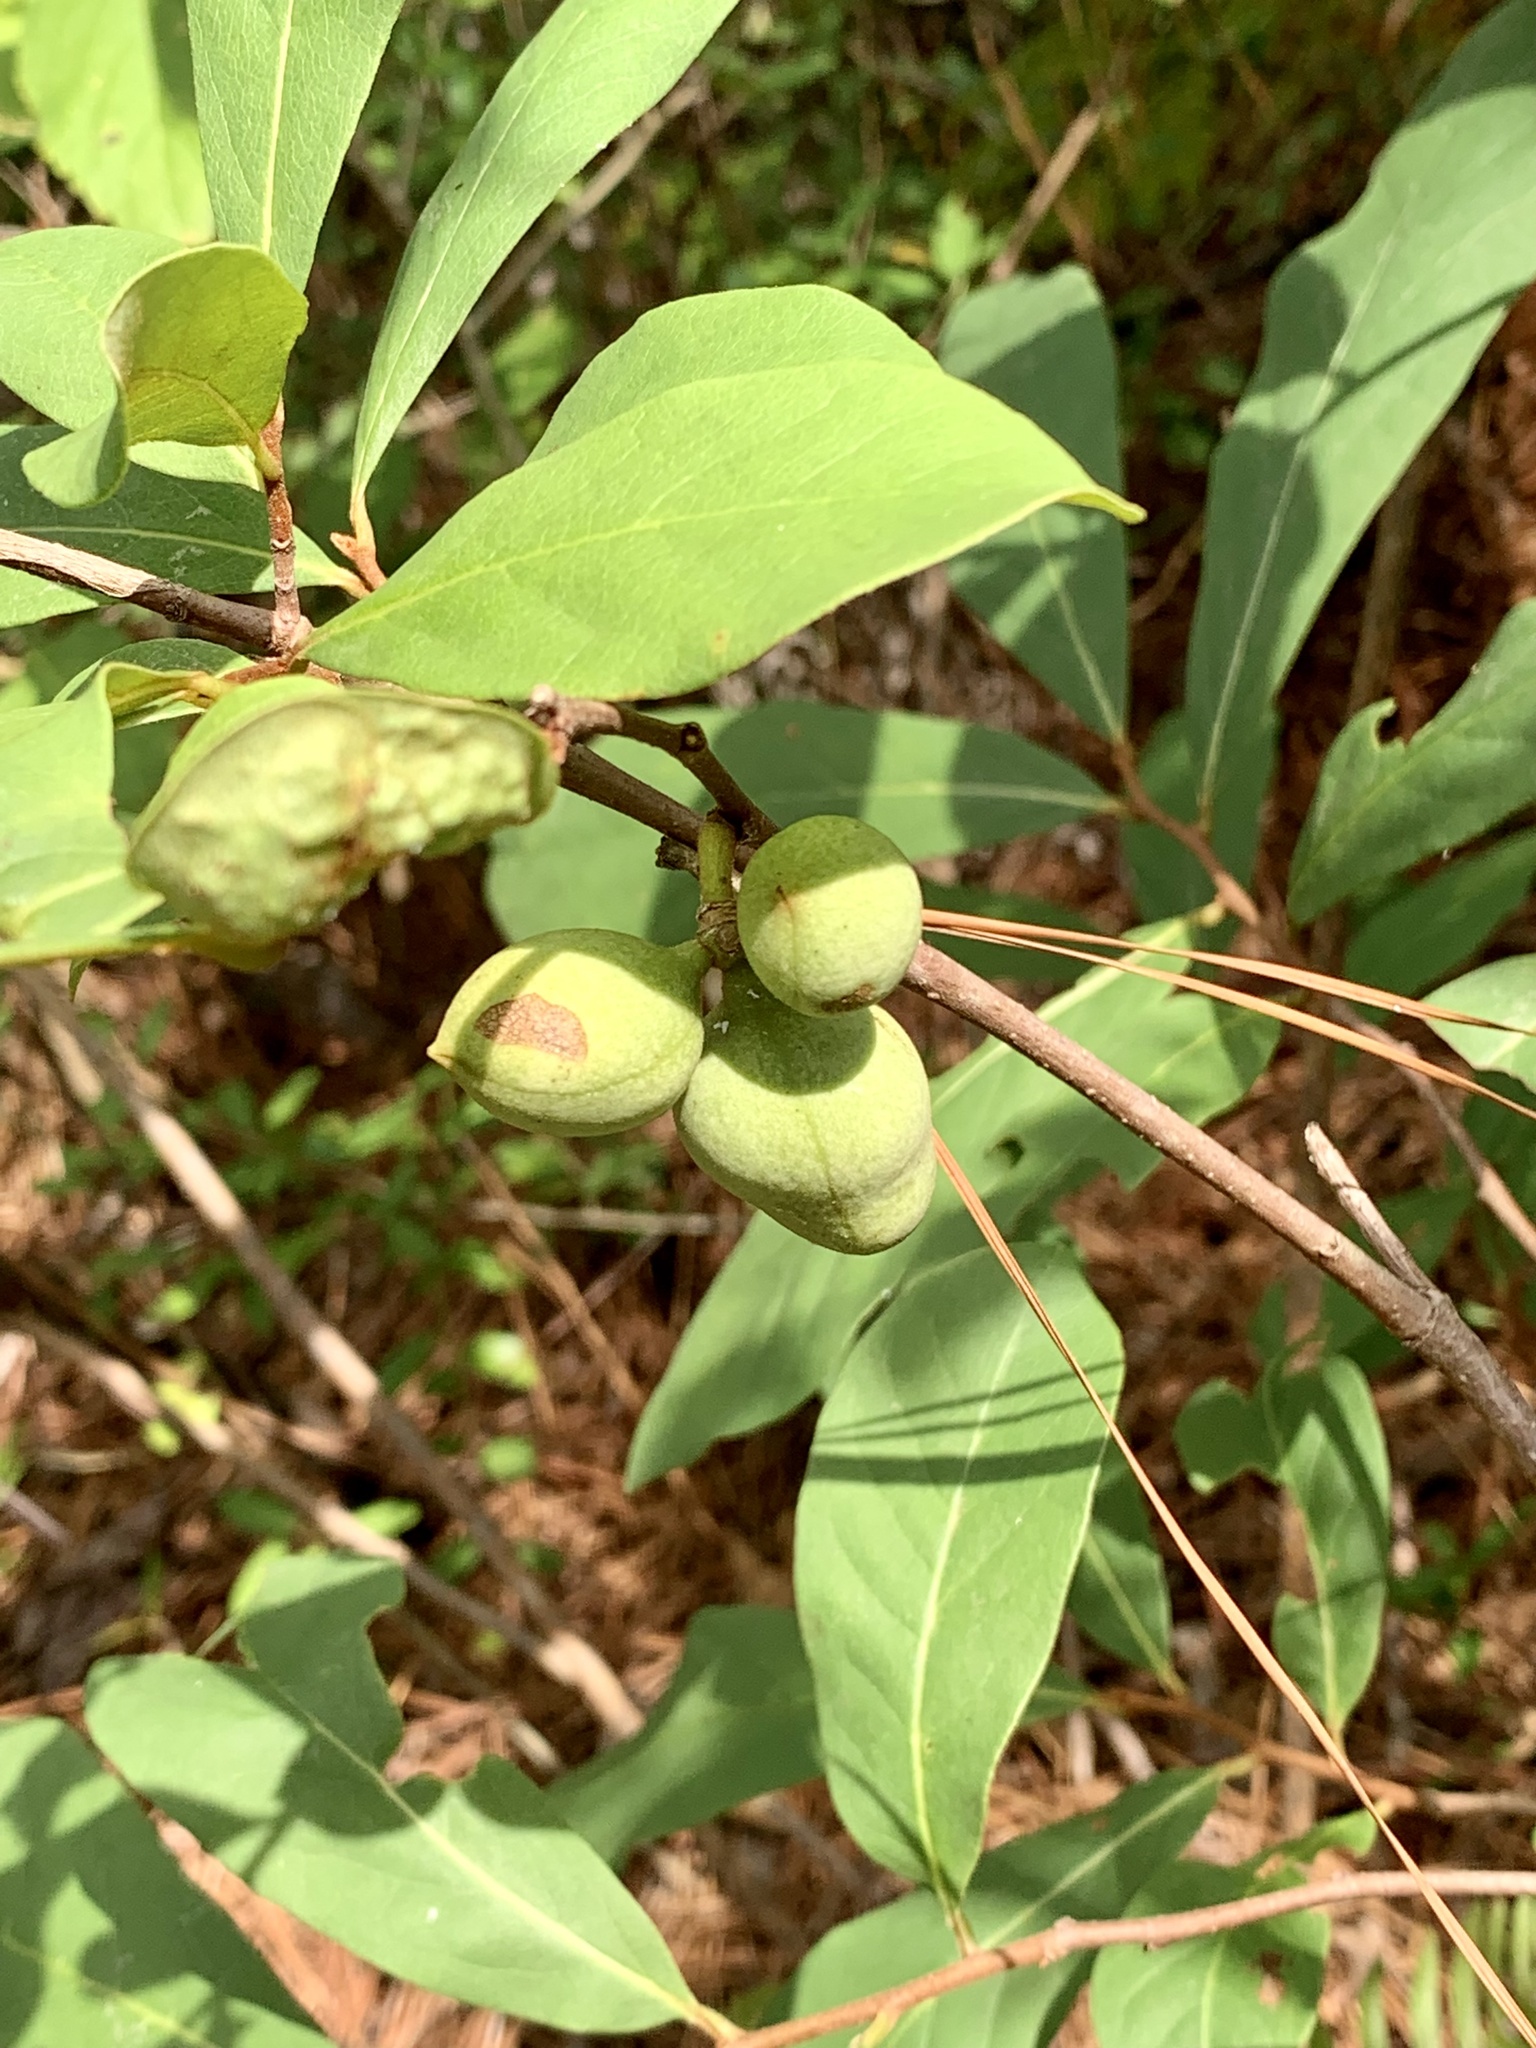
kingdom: Plantae
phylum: Tracheophyta
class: Magnoliopsida
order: Magnoliales
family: Annonaceae
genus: Asimina
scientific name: Asimina parviflora
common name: Dwarf pawpaw
